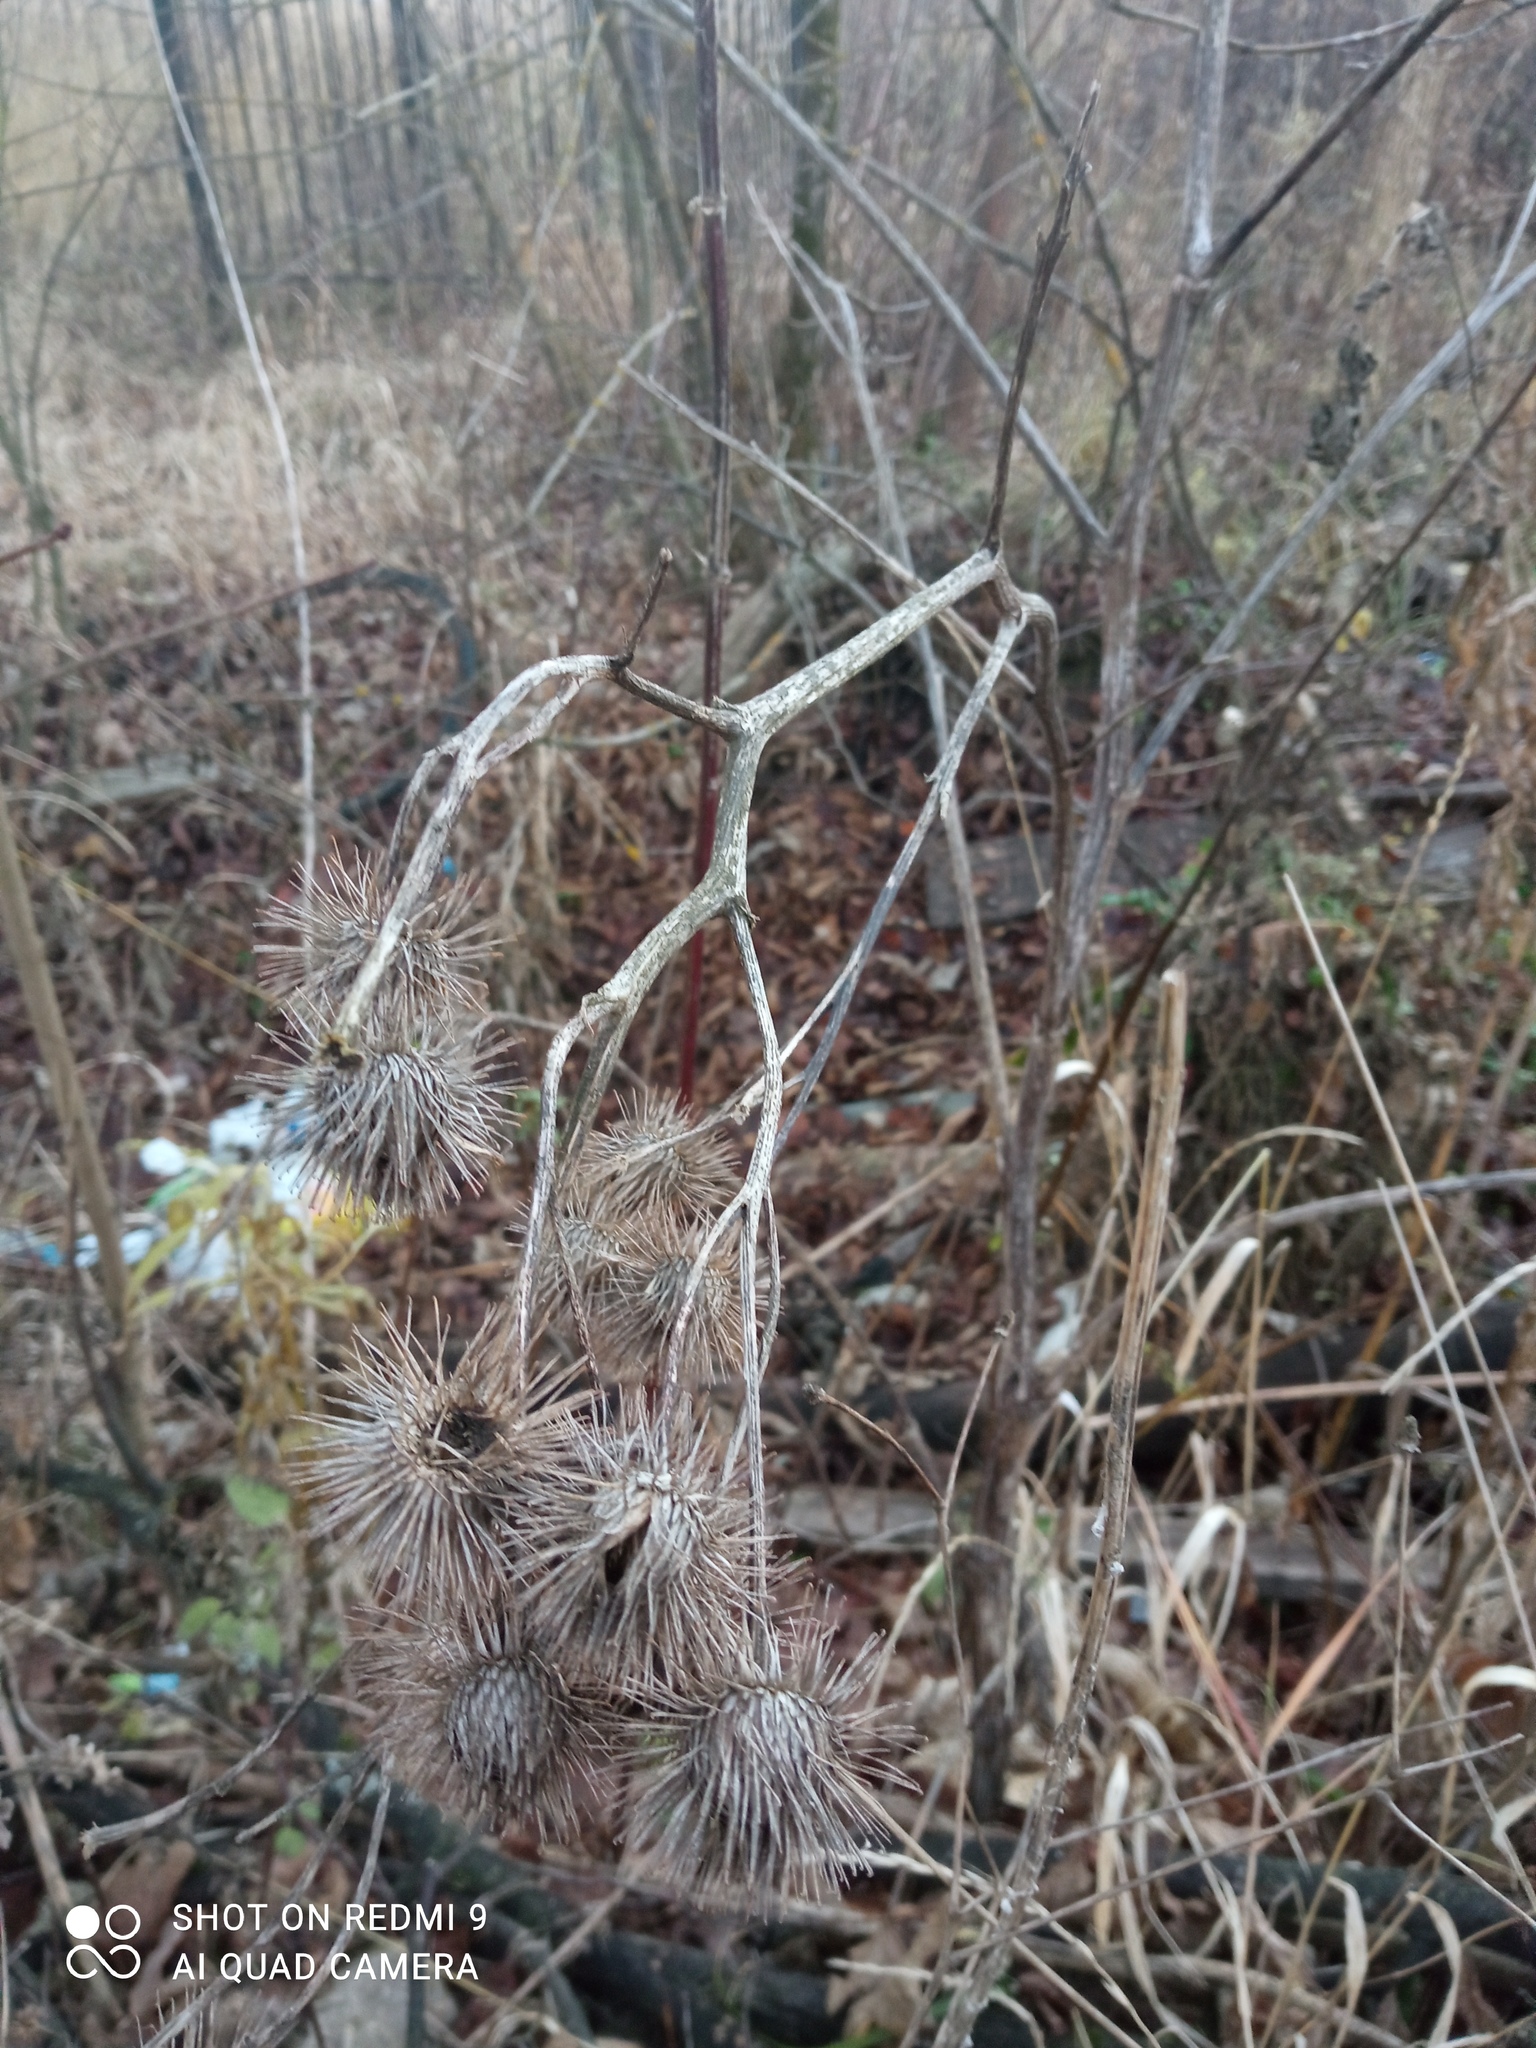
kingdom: Plantae
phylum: Tracheophyta
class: Magnoliopsida
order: Asterales
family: Asteraceae
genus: Arctium
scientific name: Arctium tomentosum
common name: Woolly burdock
